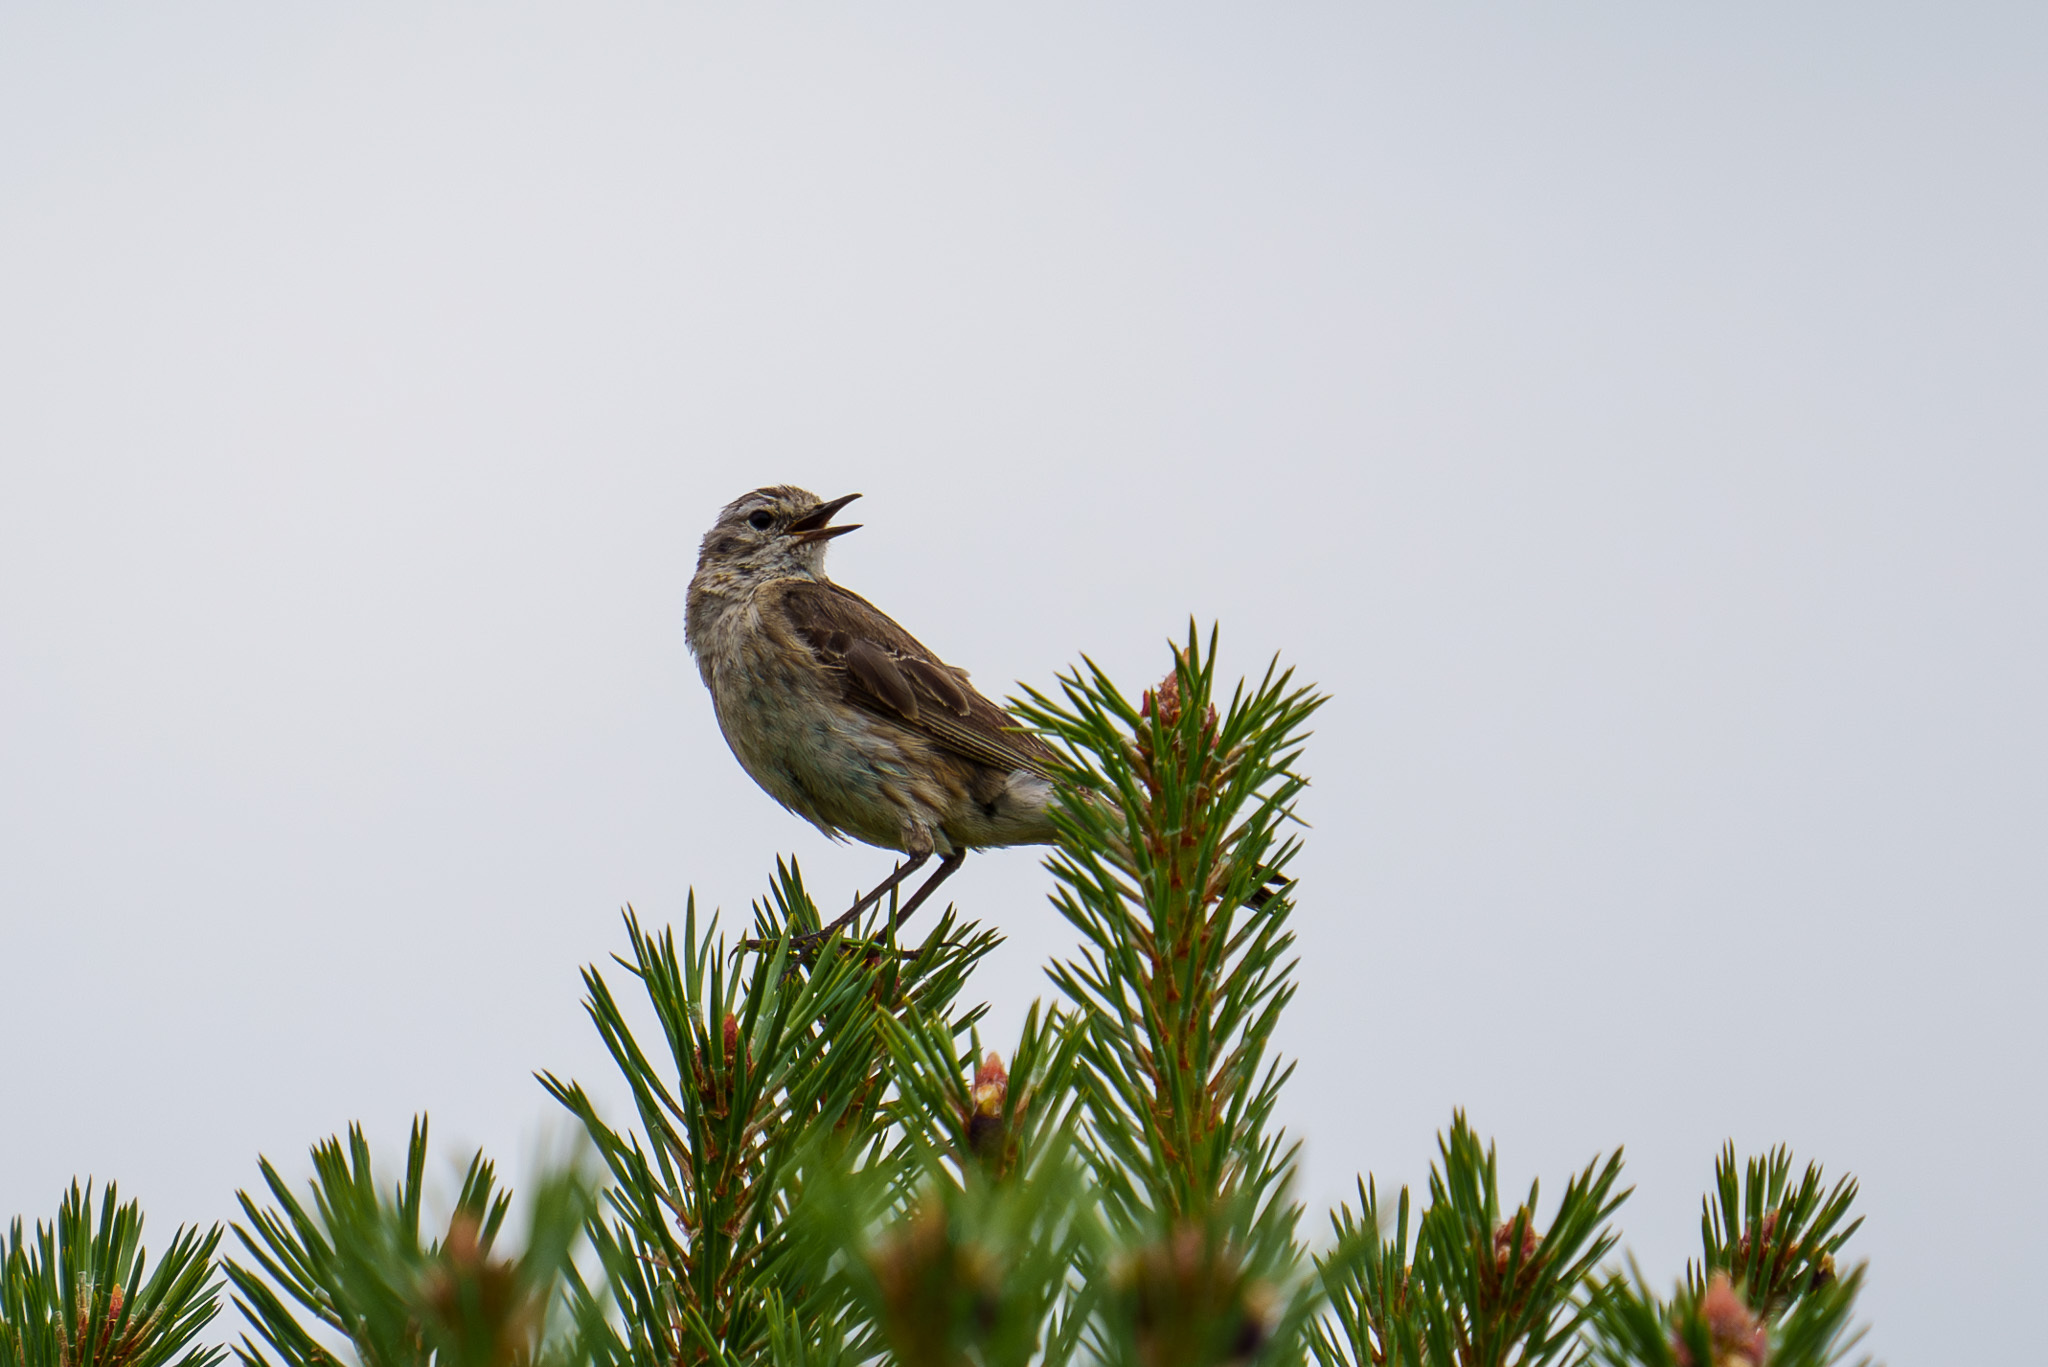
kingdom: Animalia
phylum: Chordata
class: Aves
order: Passeriformes
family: Motacillidae
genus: Anthus
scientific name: Anthus spinoletta
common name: Water pipit
